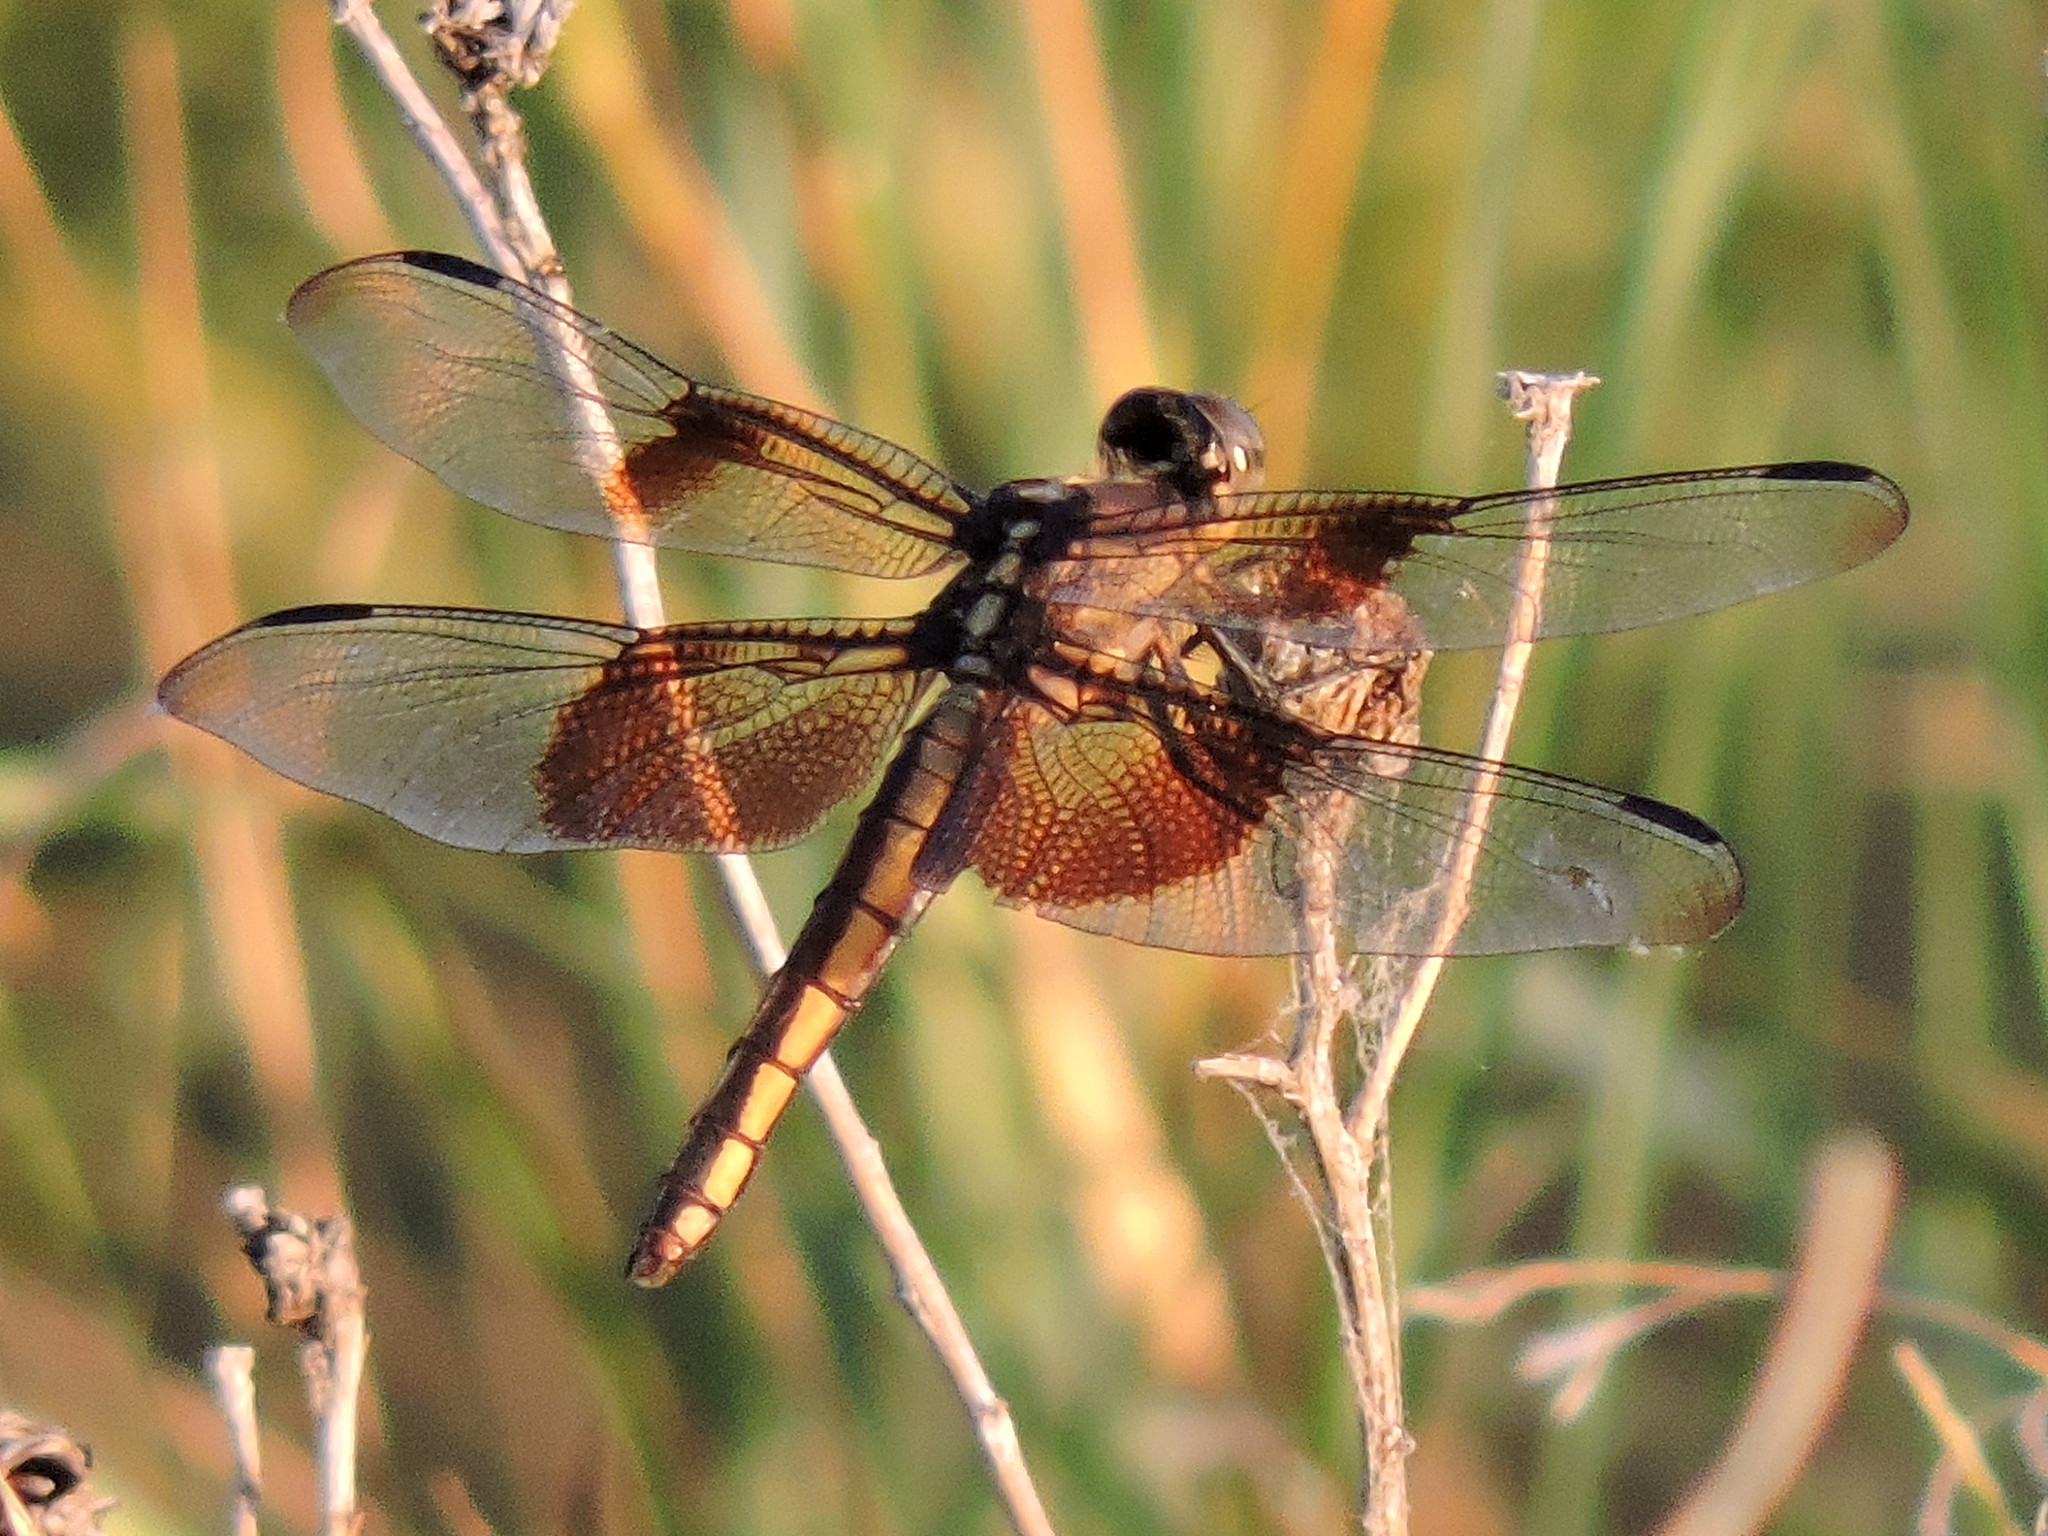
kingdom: Animalia
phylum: Arthropoda
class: Insecta
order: Odonata
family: Libellulidae
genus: Libellula
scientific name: Libellula luctuosa
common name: Widow skimmer
